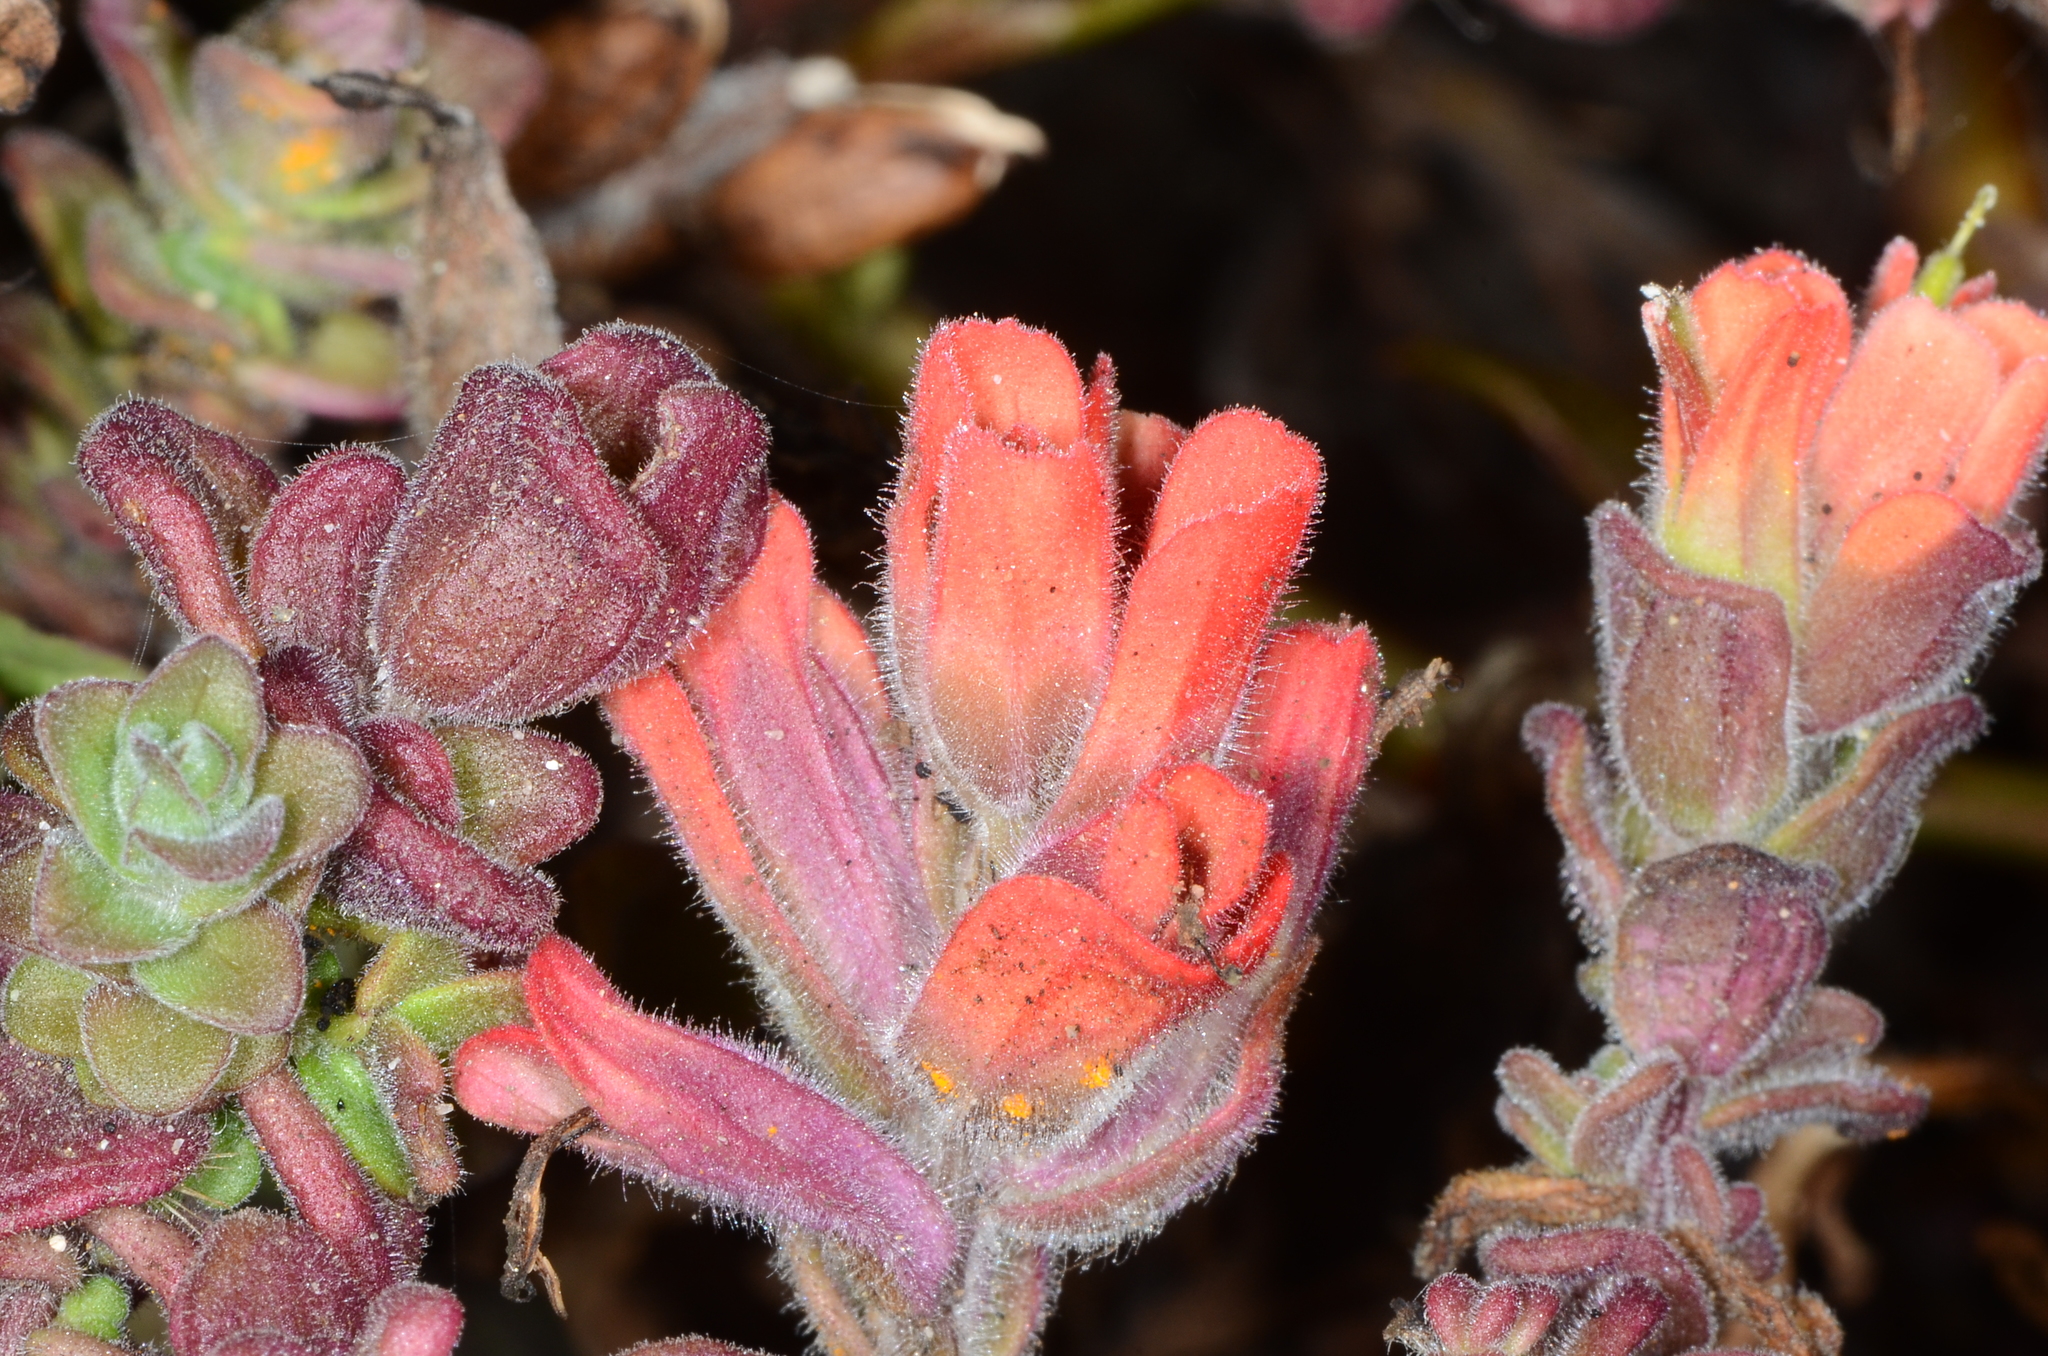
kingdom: Plantae
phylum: Tracheophyta
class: Magnoliopsida
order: Lamiales
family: Orobanchaceae
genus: Castilleja
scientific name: Castilleja latifolia
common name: Monterey indian paintbrush
